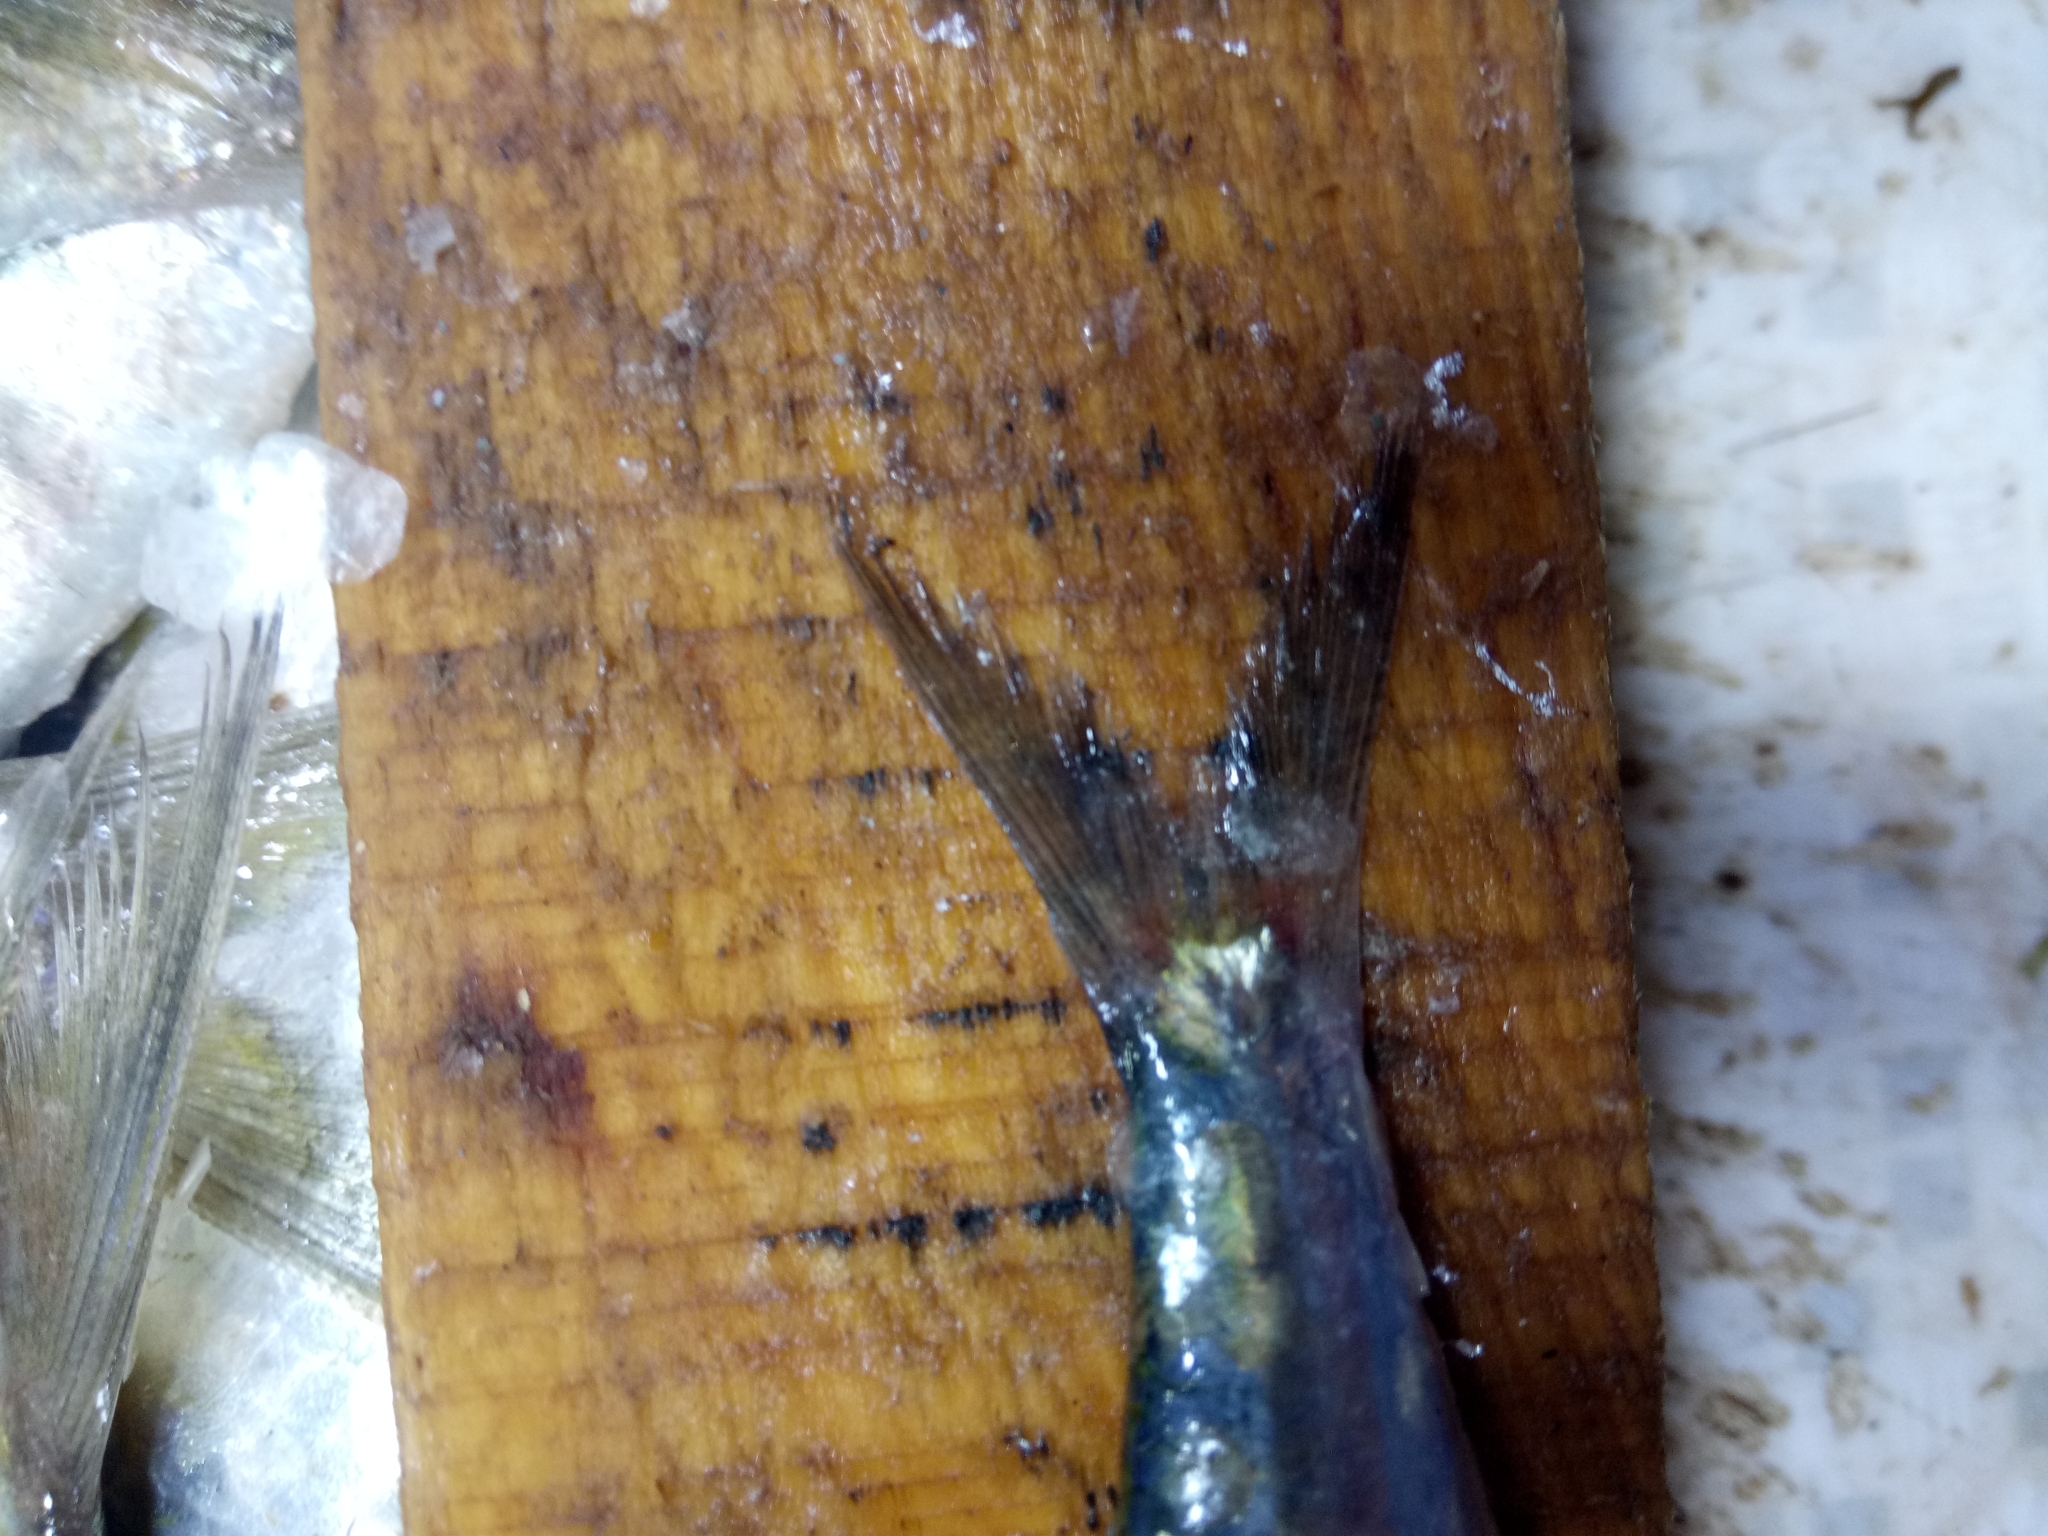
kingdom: Animalia
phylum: Chordata
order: Clupeiformes
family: Clupeidae
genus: Sardina
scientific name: Sardina pilchardus
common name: Pilchard
